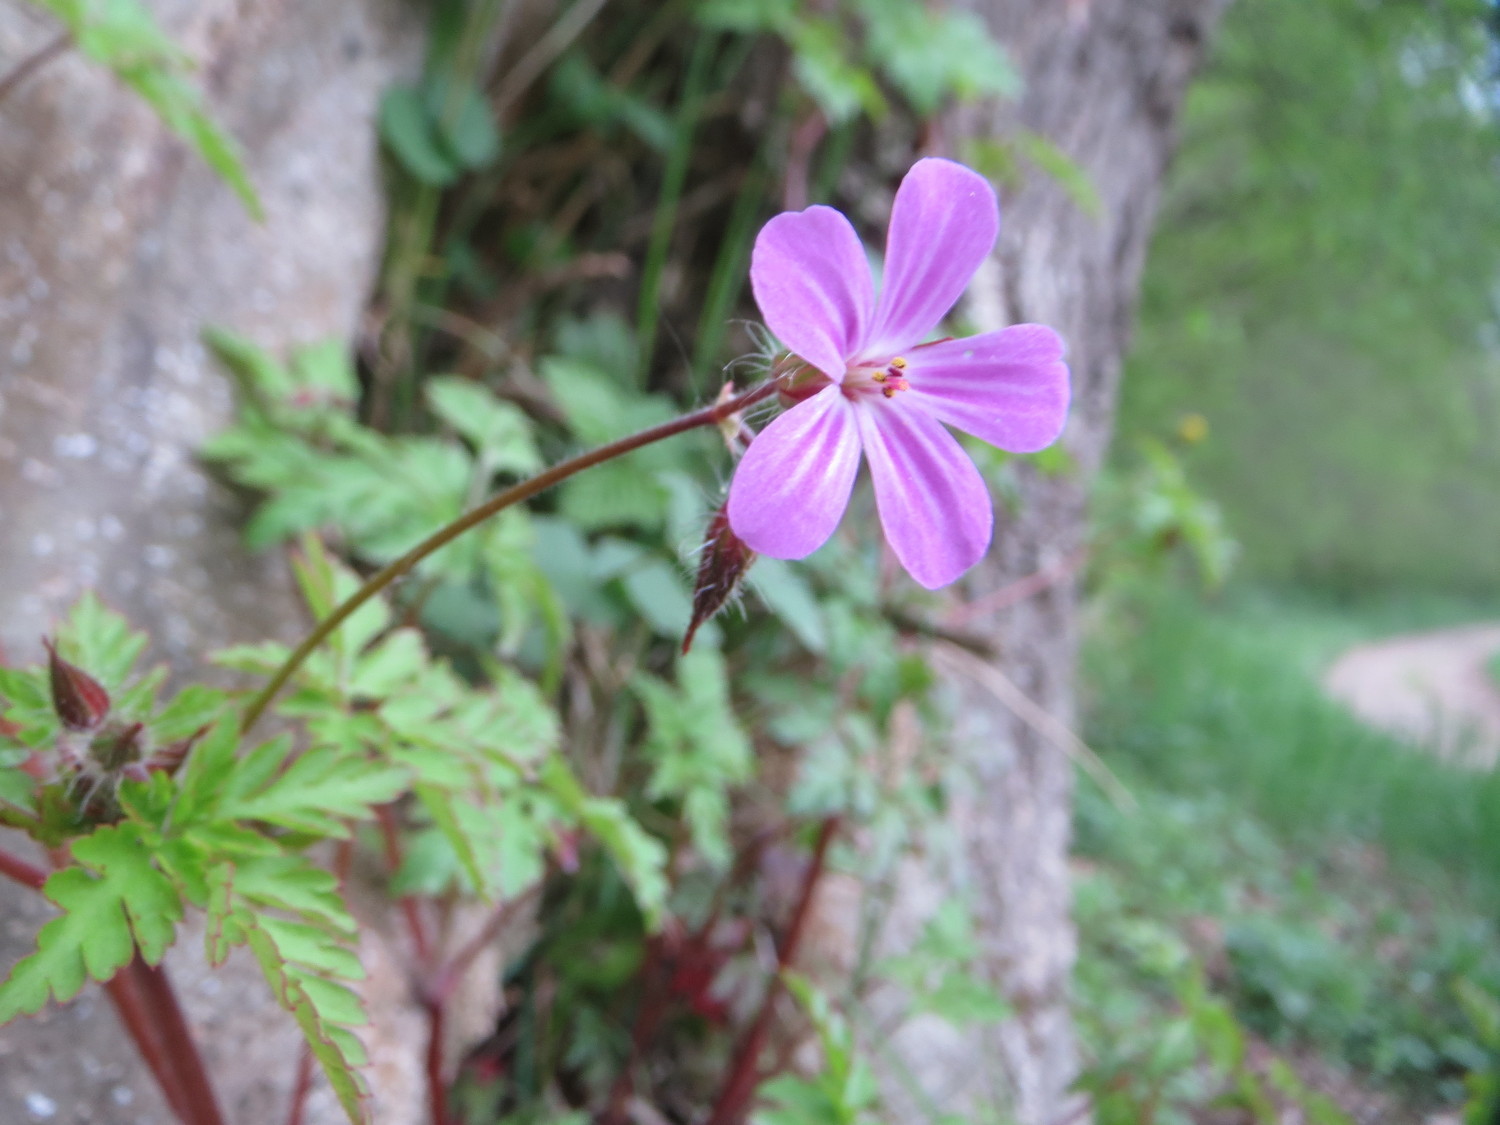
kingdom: Plantae
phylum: Tracheophyta
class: Magnoliopsida
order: Geraniales
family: Geraniaceae
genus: Geranium
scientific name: Geranium robertianum
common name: Herb-robert
